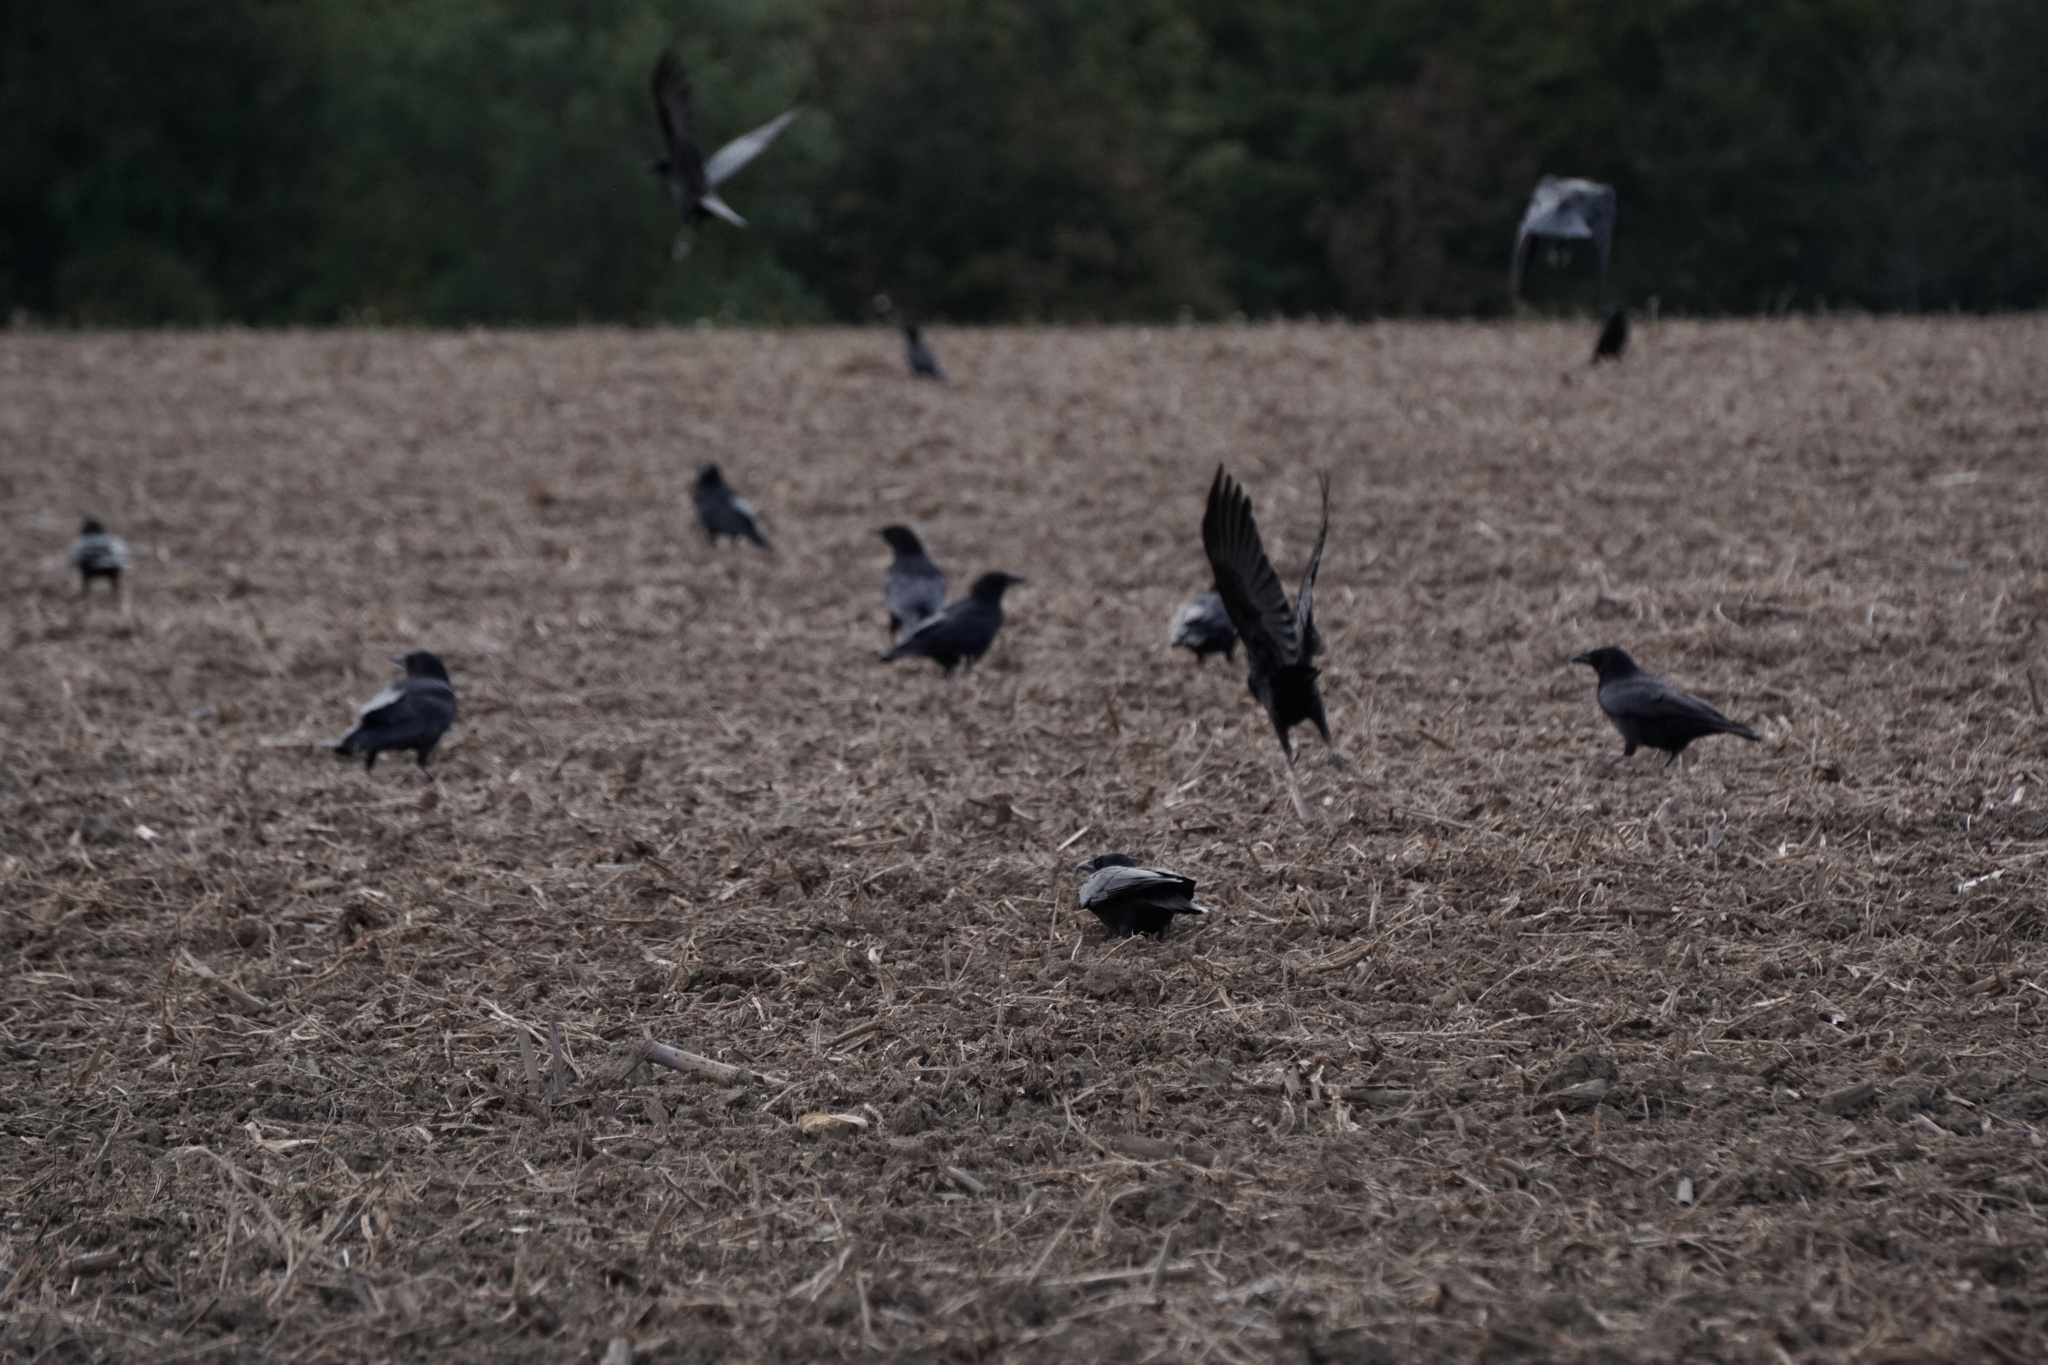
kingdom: Animalia
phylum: Chordata
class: Aves
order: Passeriformes
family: Corvidae
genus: Corvus
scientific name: Corvus brachyrhynchos
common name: American crow
